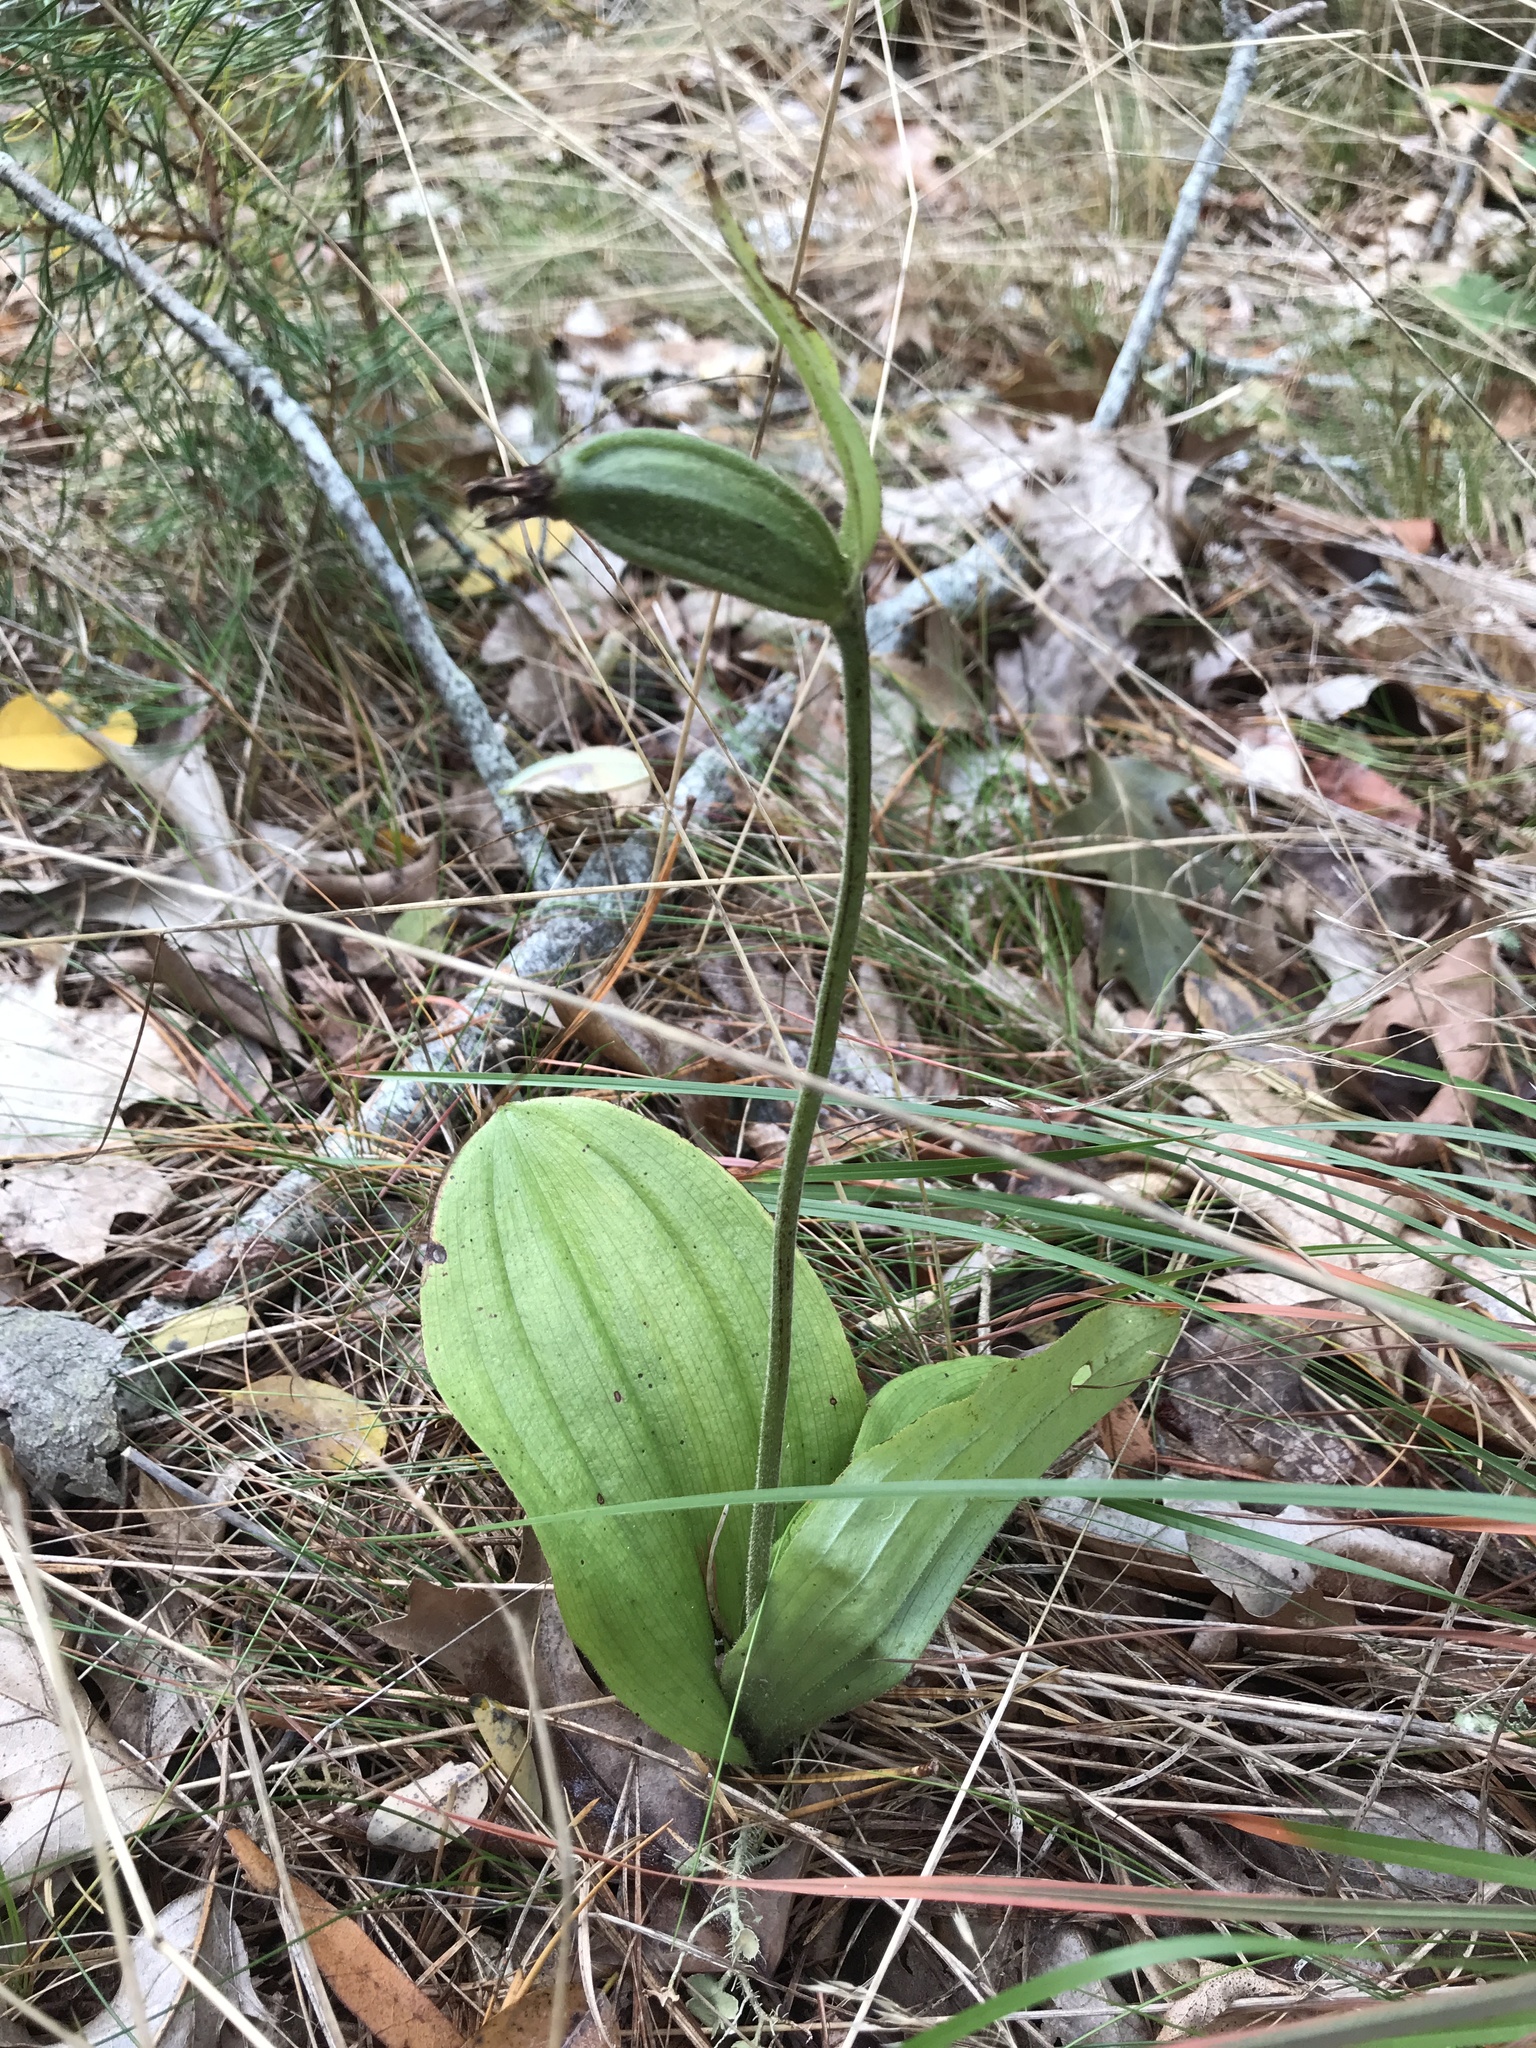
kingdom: Plantae
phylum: Tracheophyta
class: Liliopsida
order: Asparagales
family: Orchidaceae
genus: Cypripedium
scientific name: Cypripedium acaule
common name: Pink lady's-slipper
